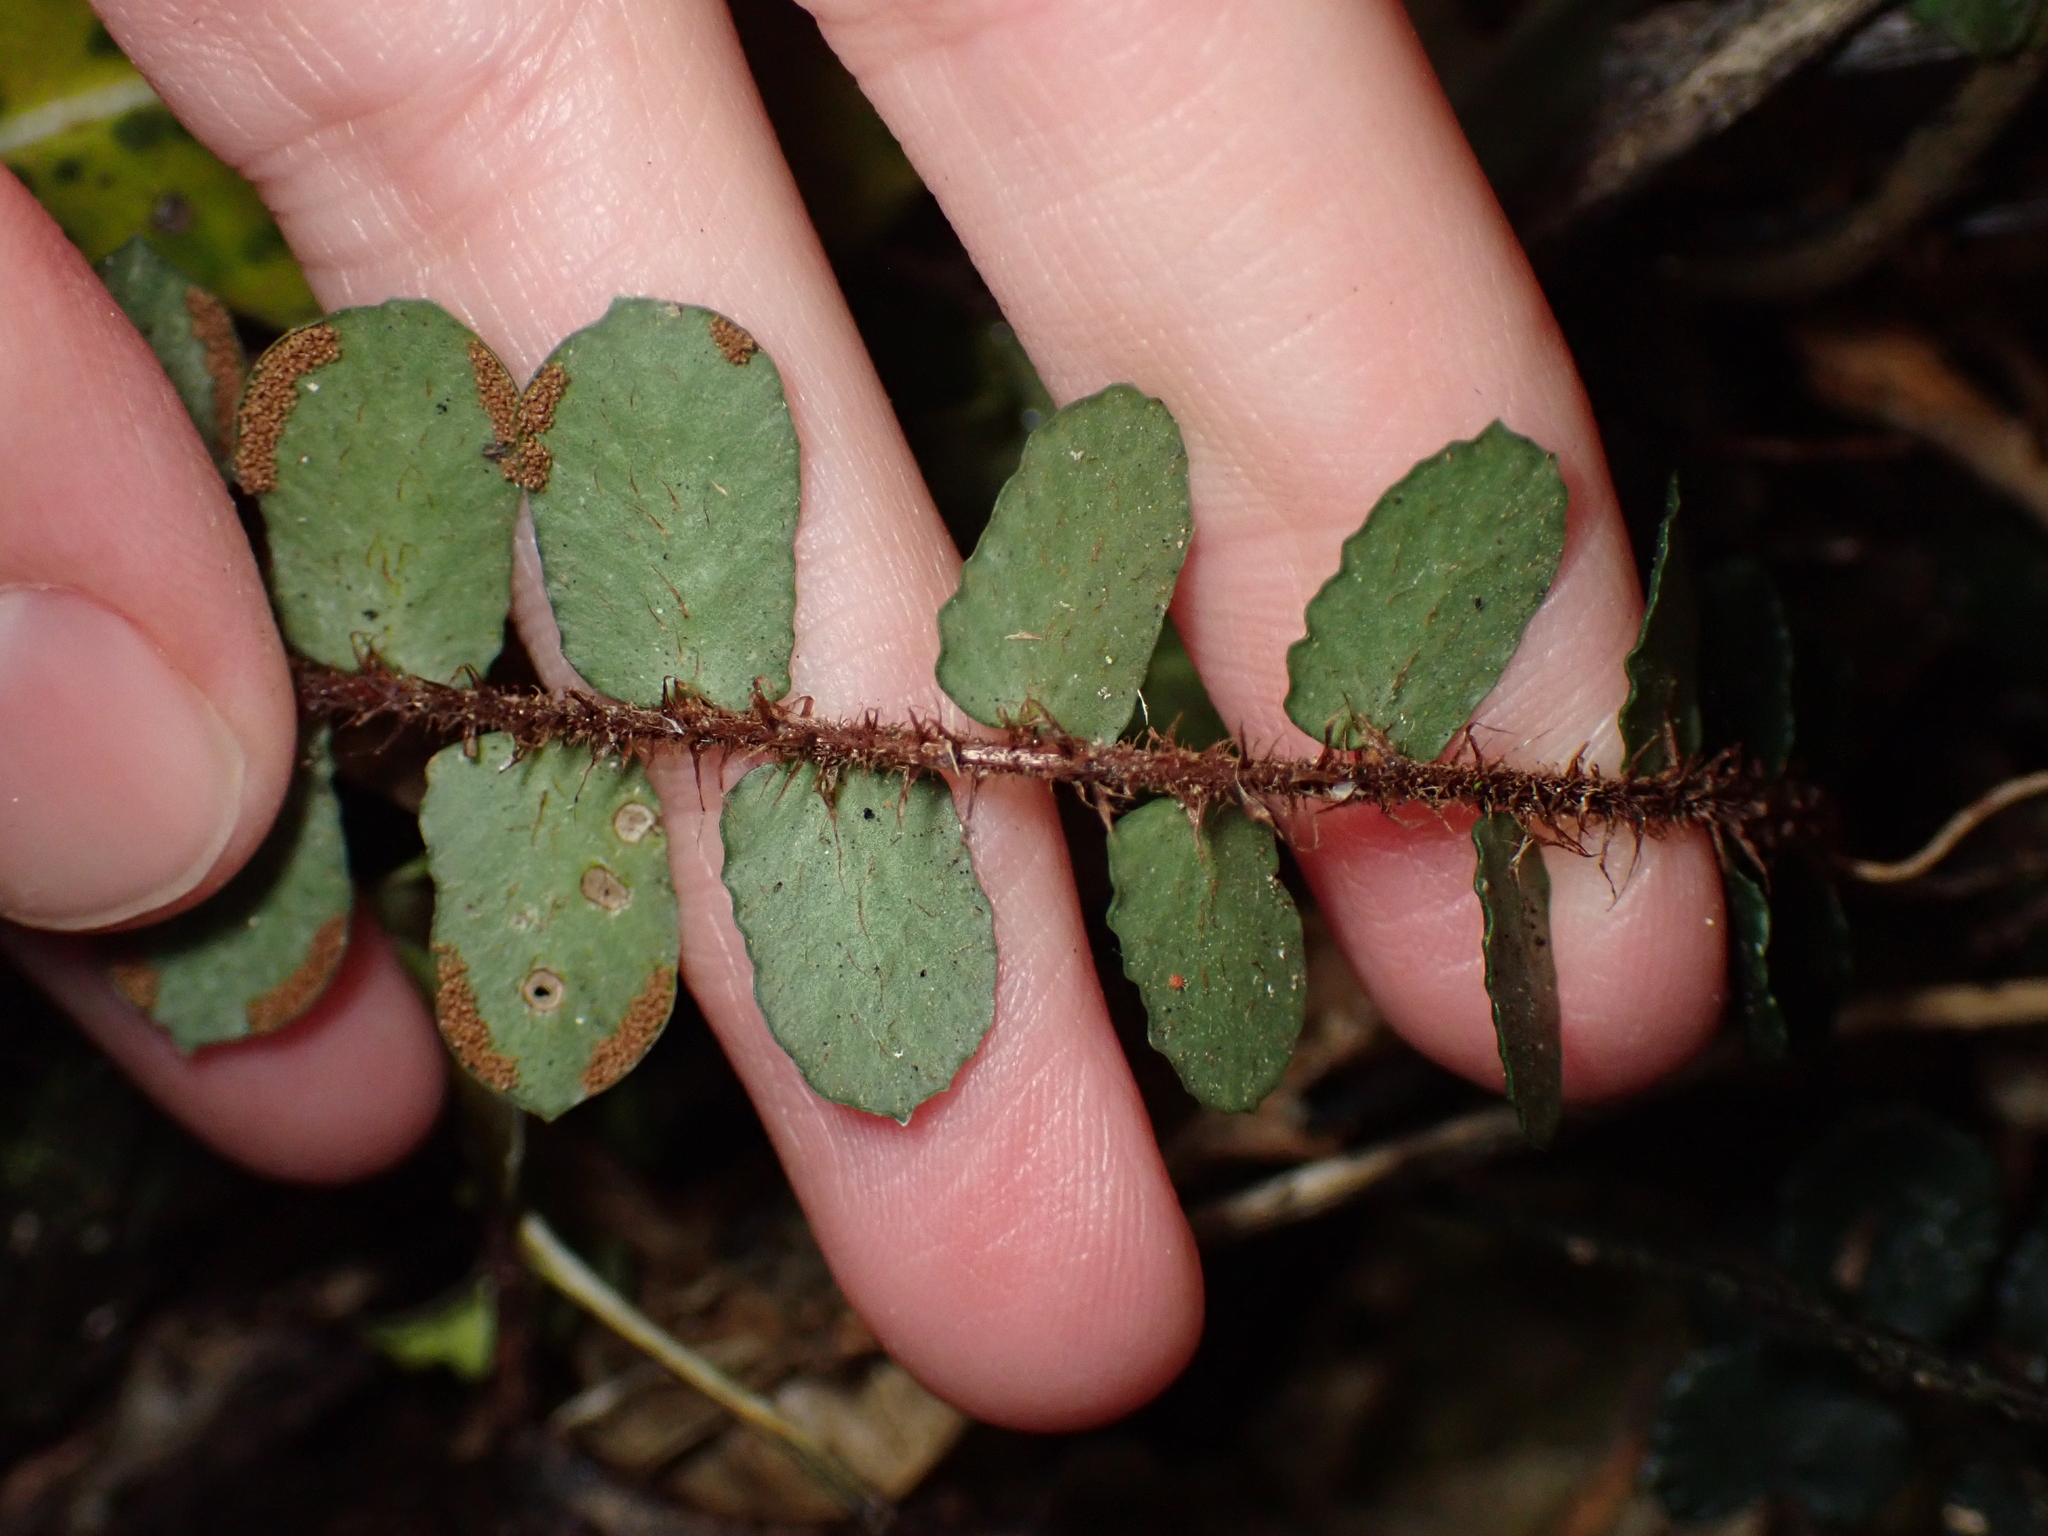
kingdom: Plantae
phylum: Tracheophyta
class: Polypodiopsida
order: Polypodiales
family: Pteridaceae
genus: Pellaea
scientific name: Pellaea rotundifolia
